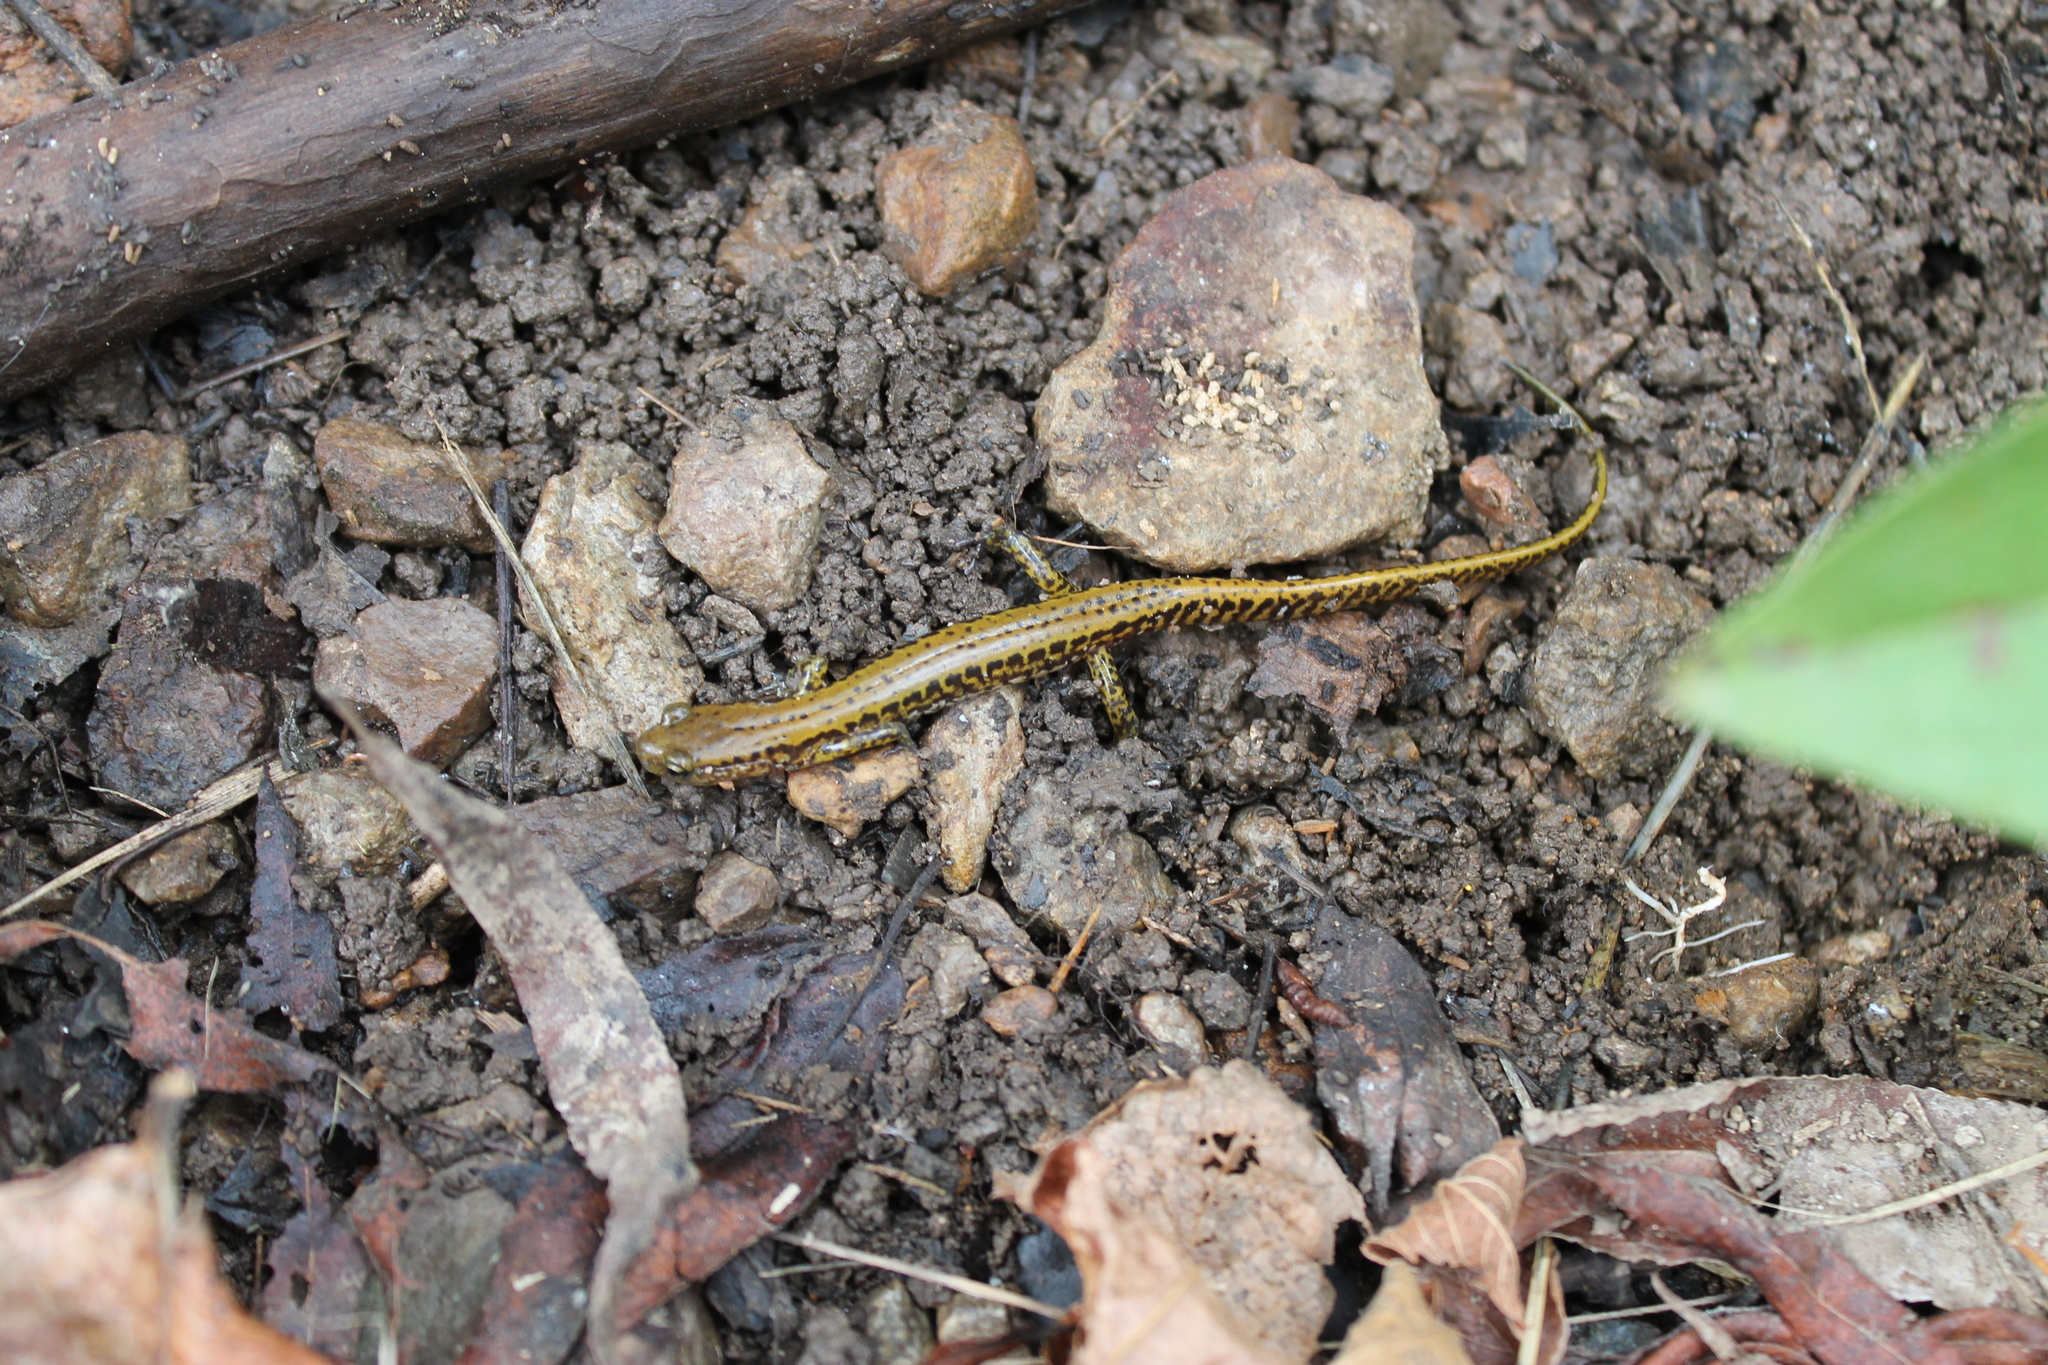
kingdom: Animalia
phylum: Chordata
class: Amphibia
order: Caudata
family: Plethodontidae
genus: Eurycea
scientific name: Eurycea longicauda
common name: Long-tailed salamander
